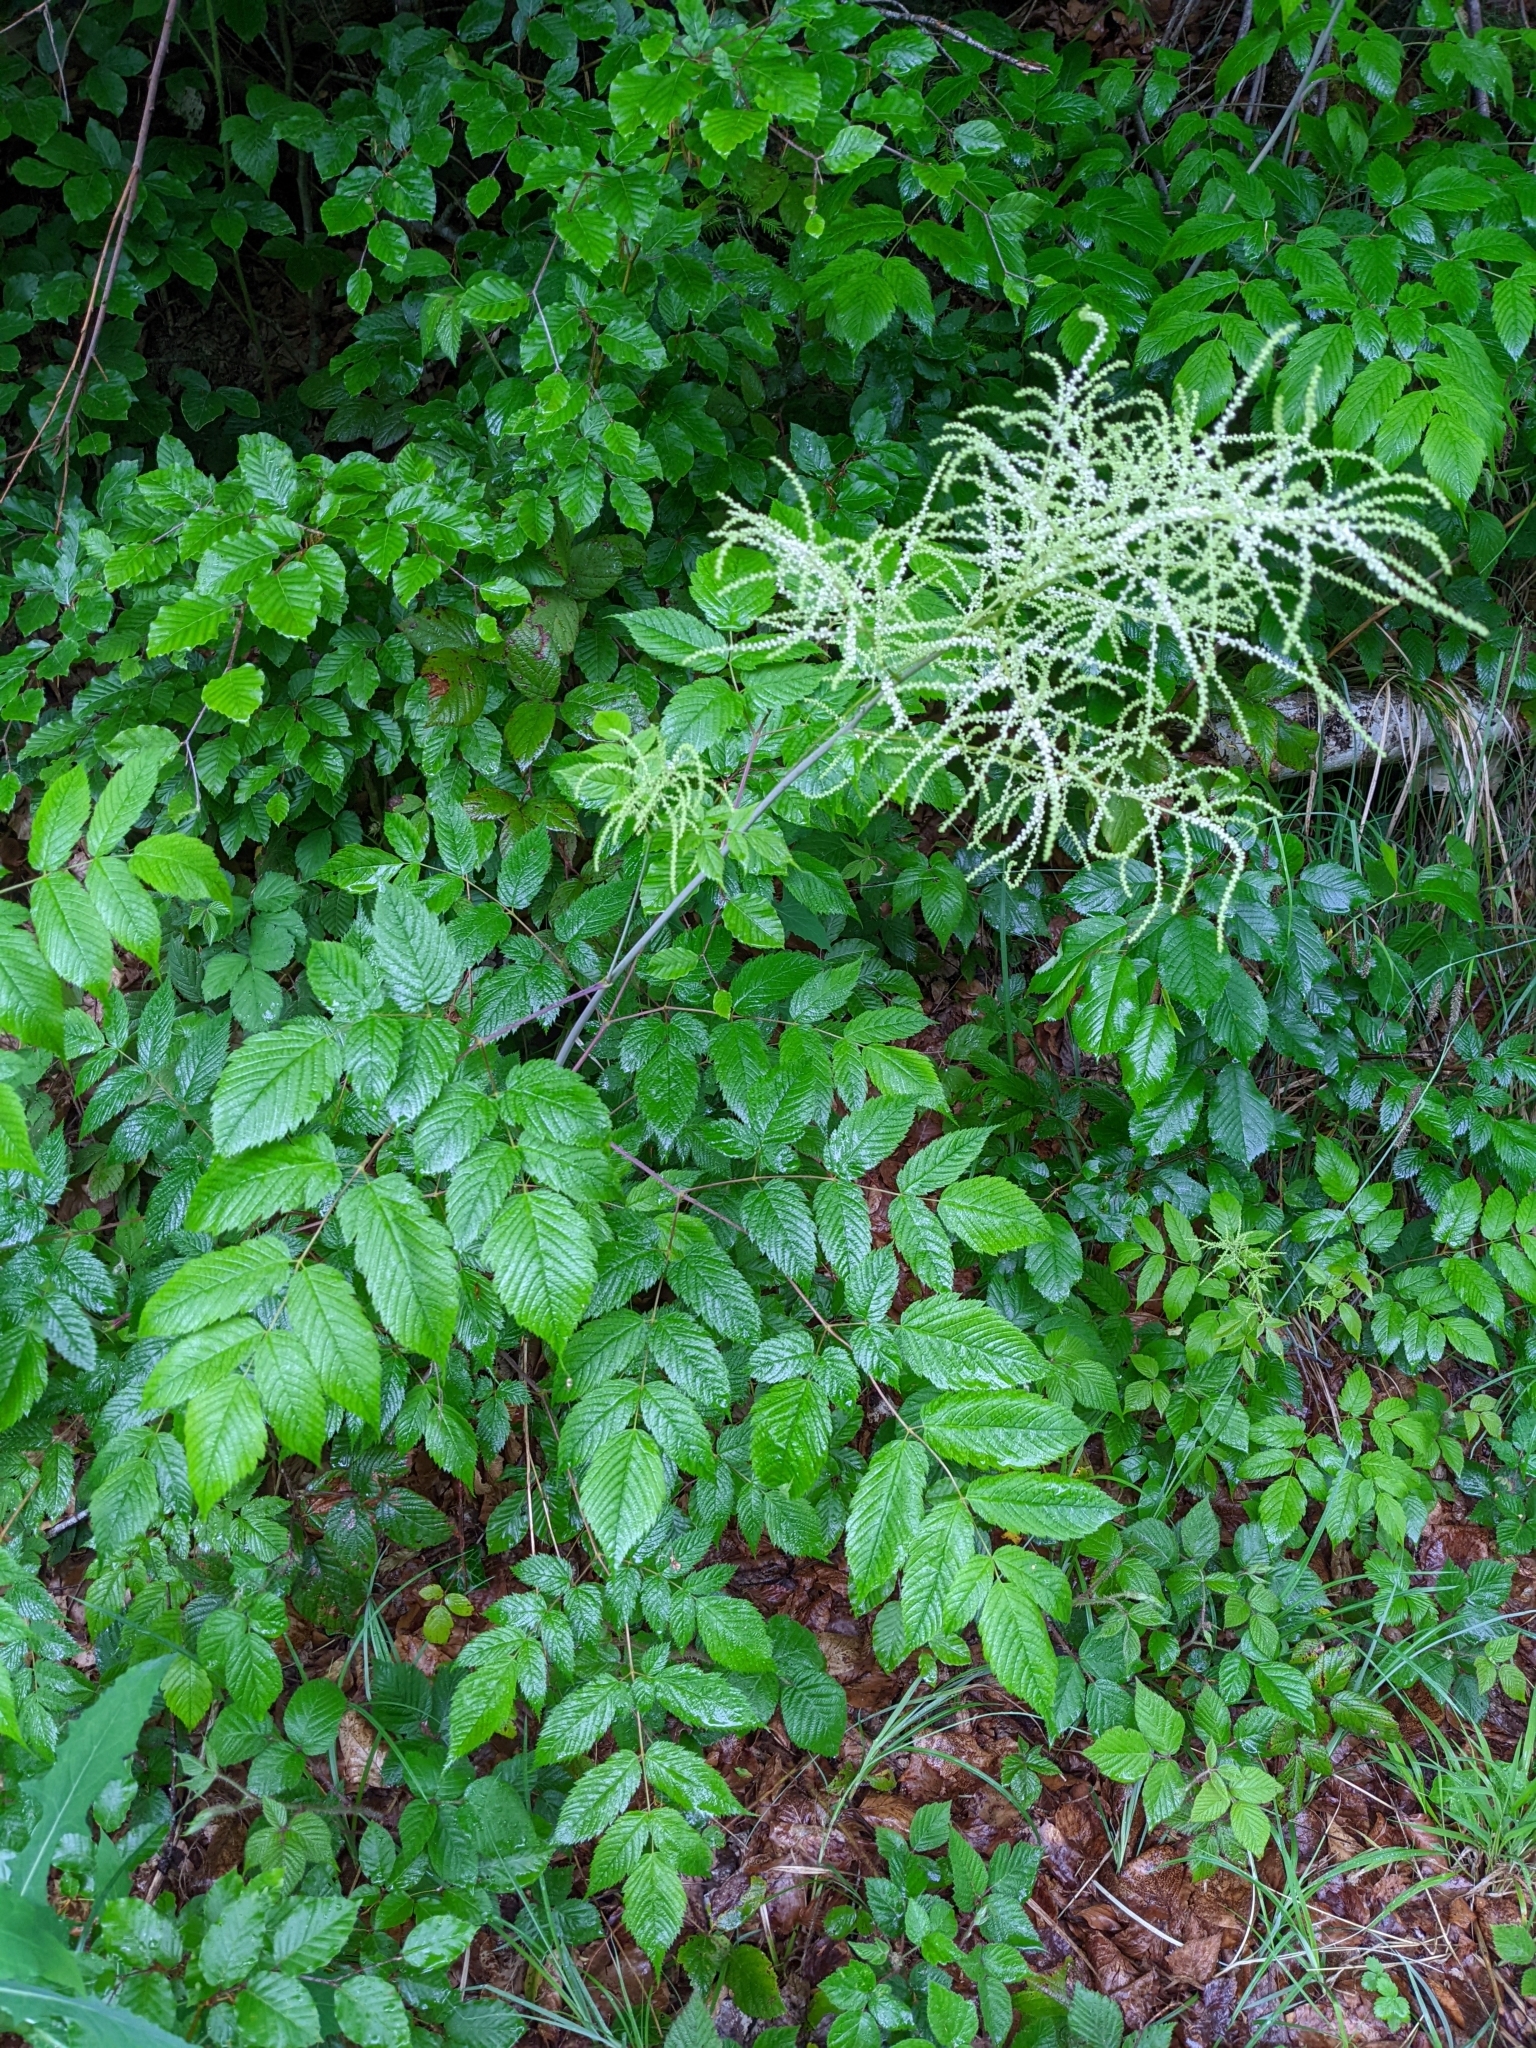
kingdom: Plantae
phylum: Tracheophyta
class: Magnoliopsida
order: Rosales
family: Rosaceae
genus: Aruncus
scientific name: Aruncus dioicus
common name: Buck's-beard
